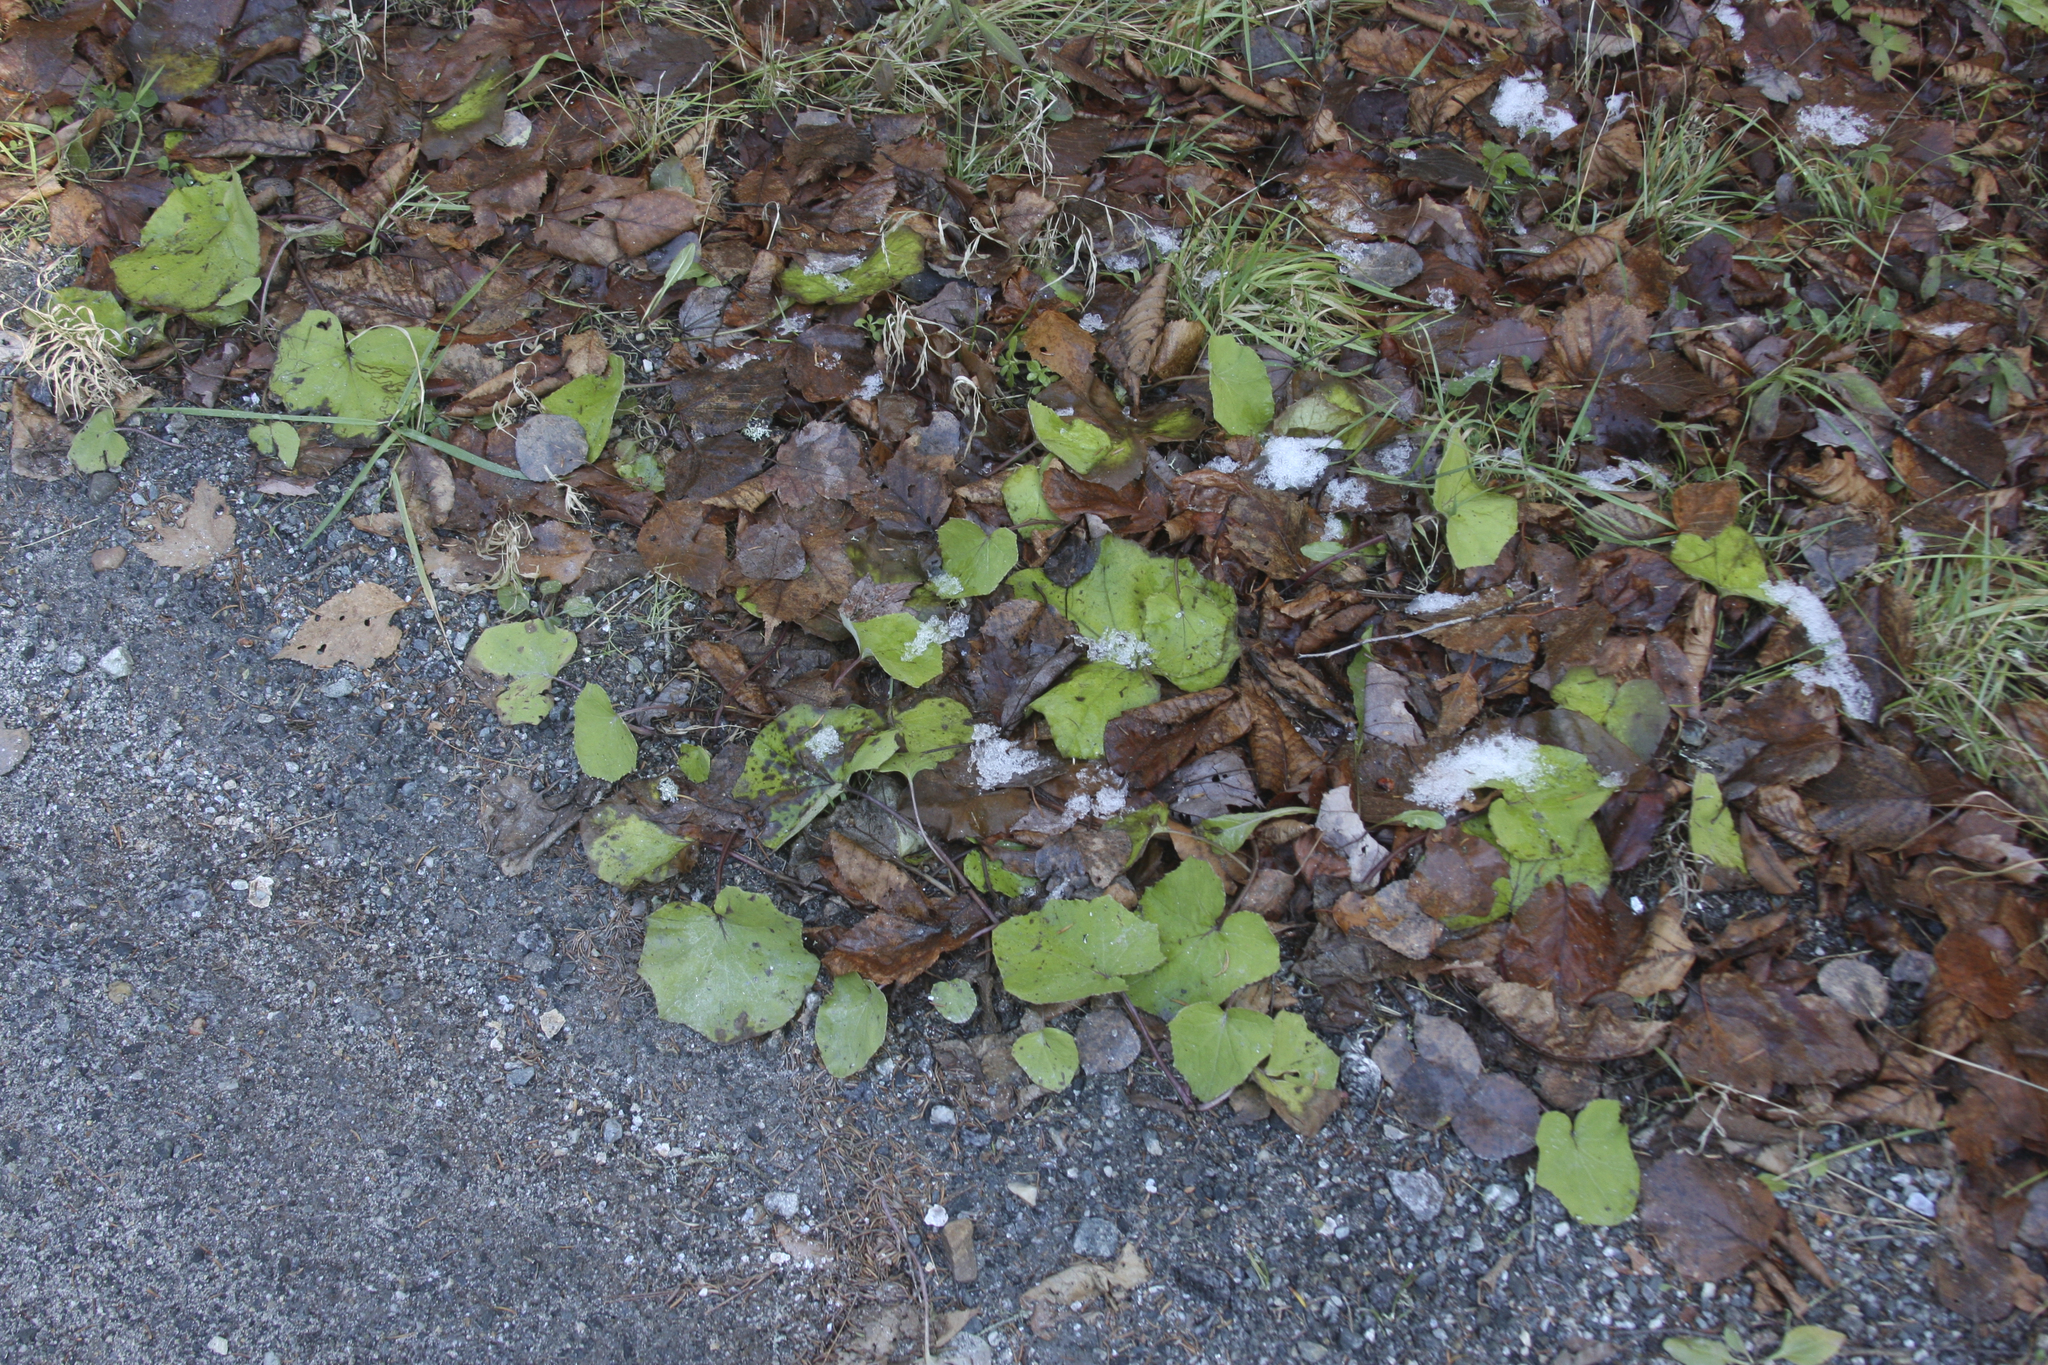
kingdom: Plantae
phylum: Tracheophyta
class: Magnoliopsida
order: Asterales
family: Asteraceae
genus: Tussilago
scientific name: Tussilago farfara
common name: Coltsfoot
